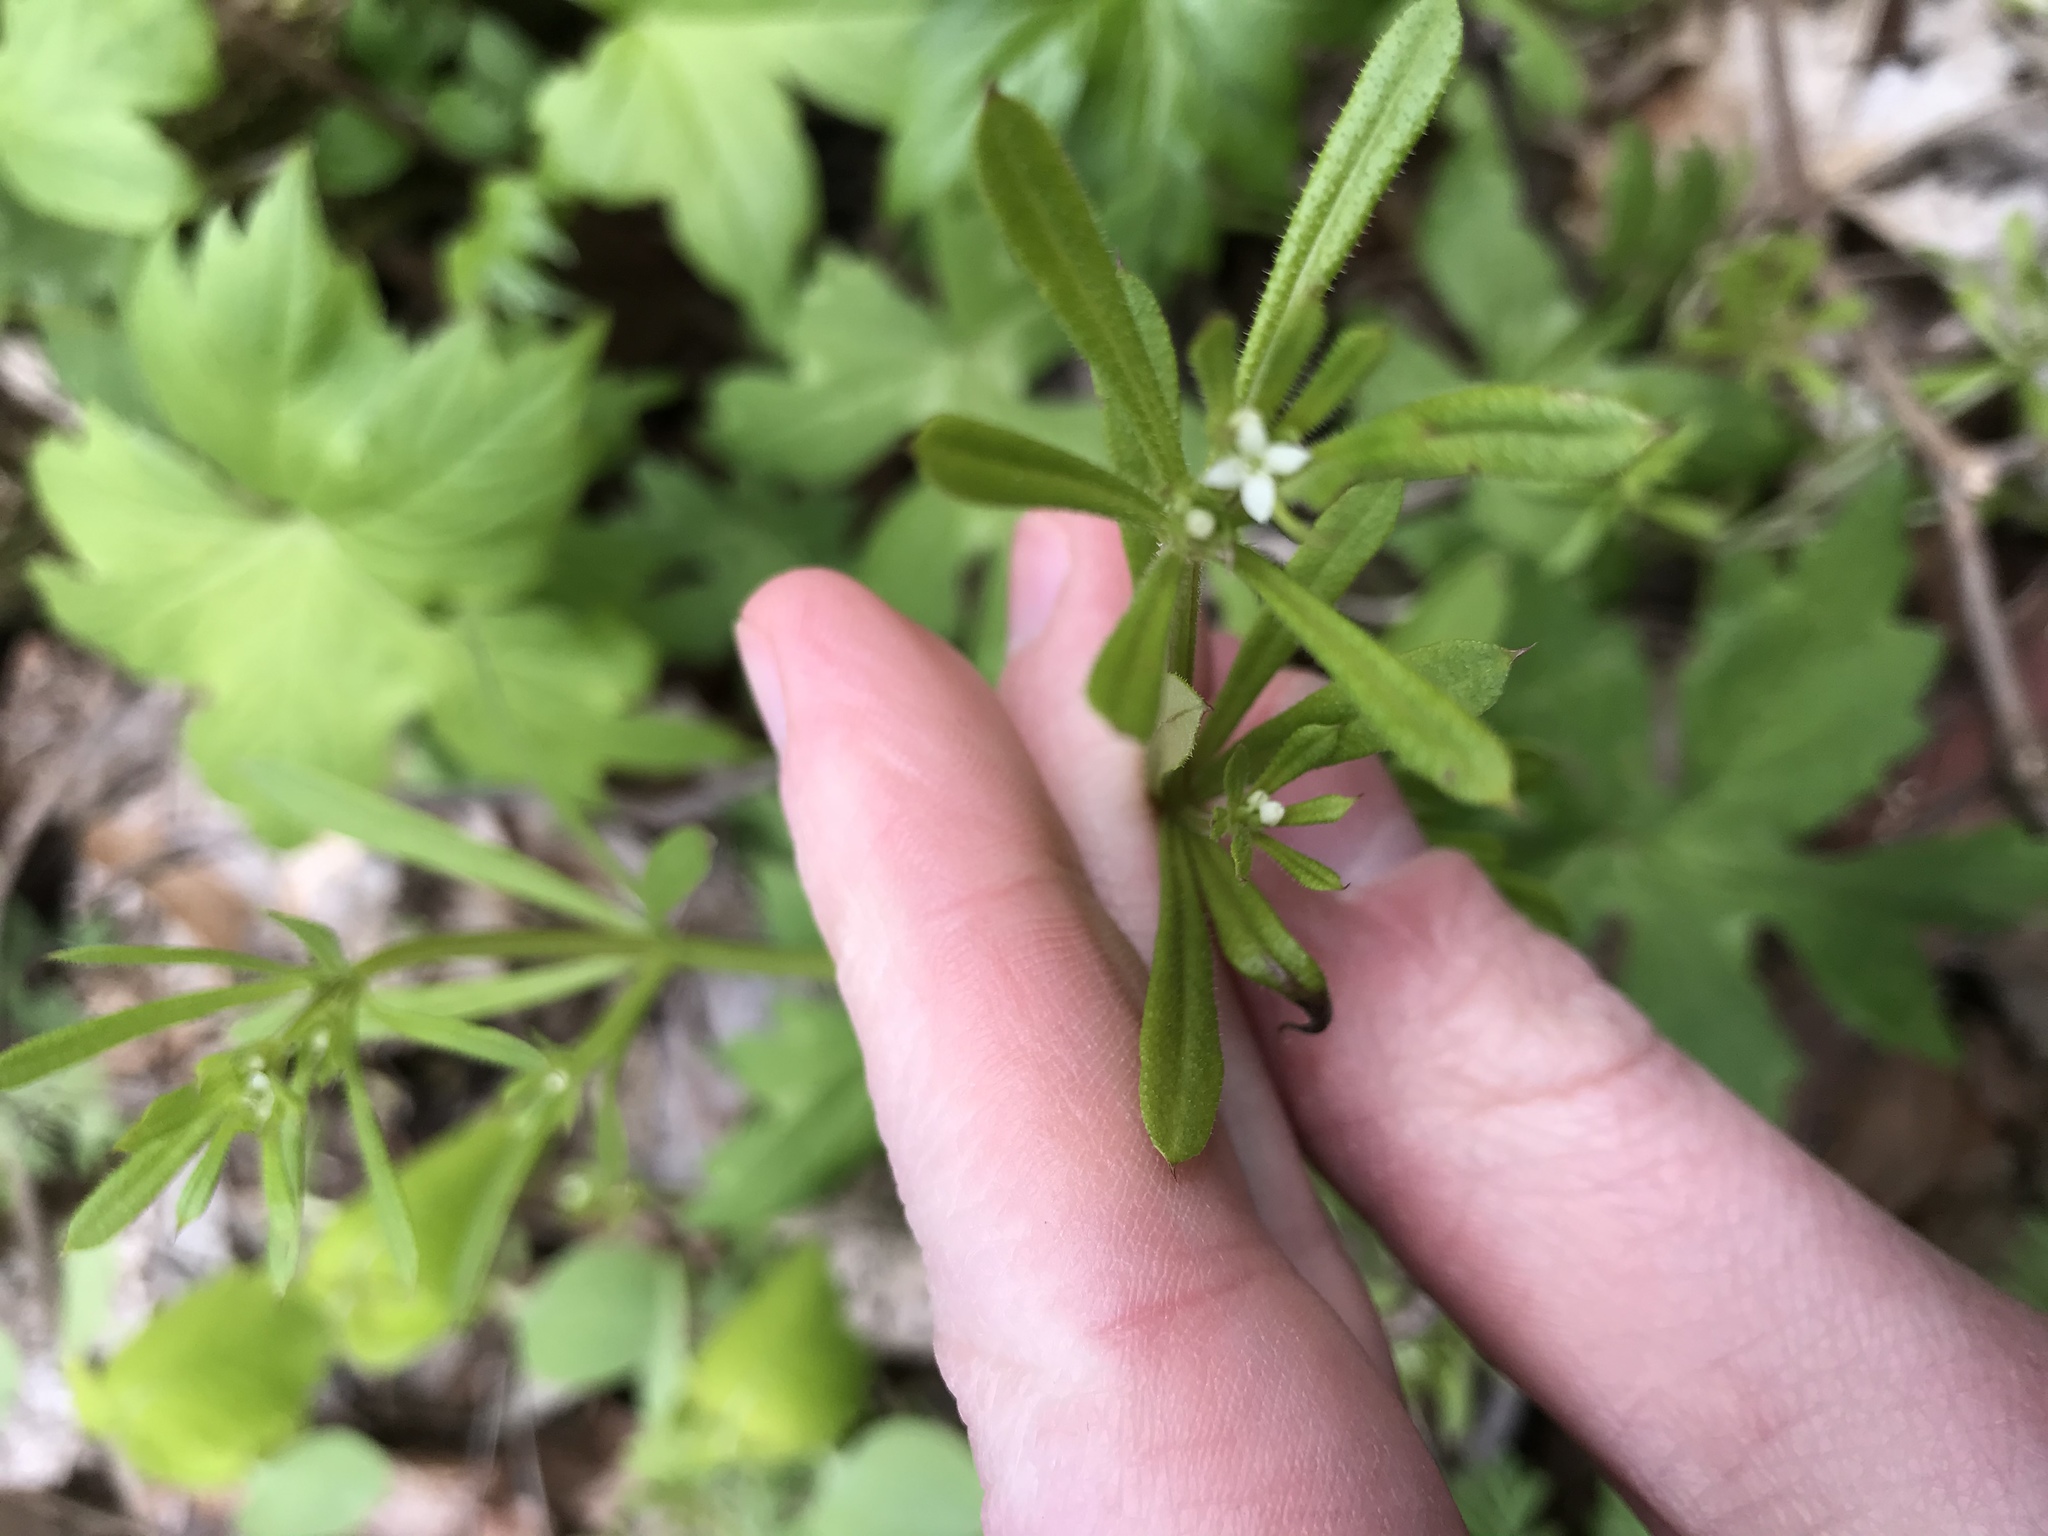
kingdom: Plantae
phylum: Tracheophyta
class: Magnoliopsida
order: Gentianales
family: Rubiaceae
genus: Galium
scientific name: Galium aparine
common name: Cleavers
